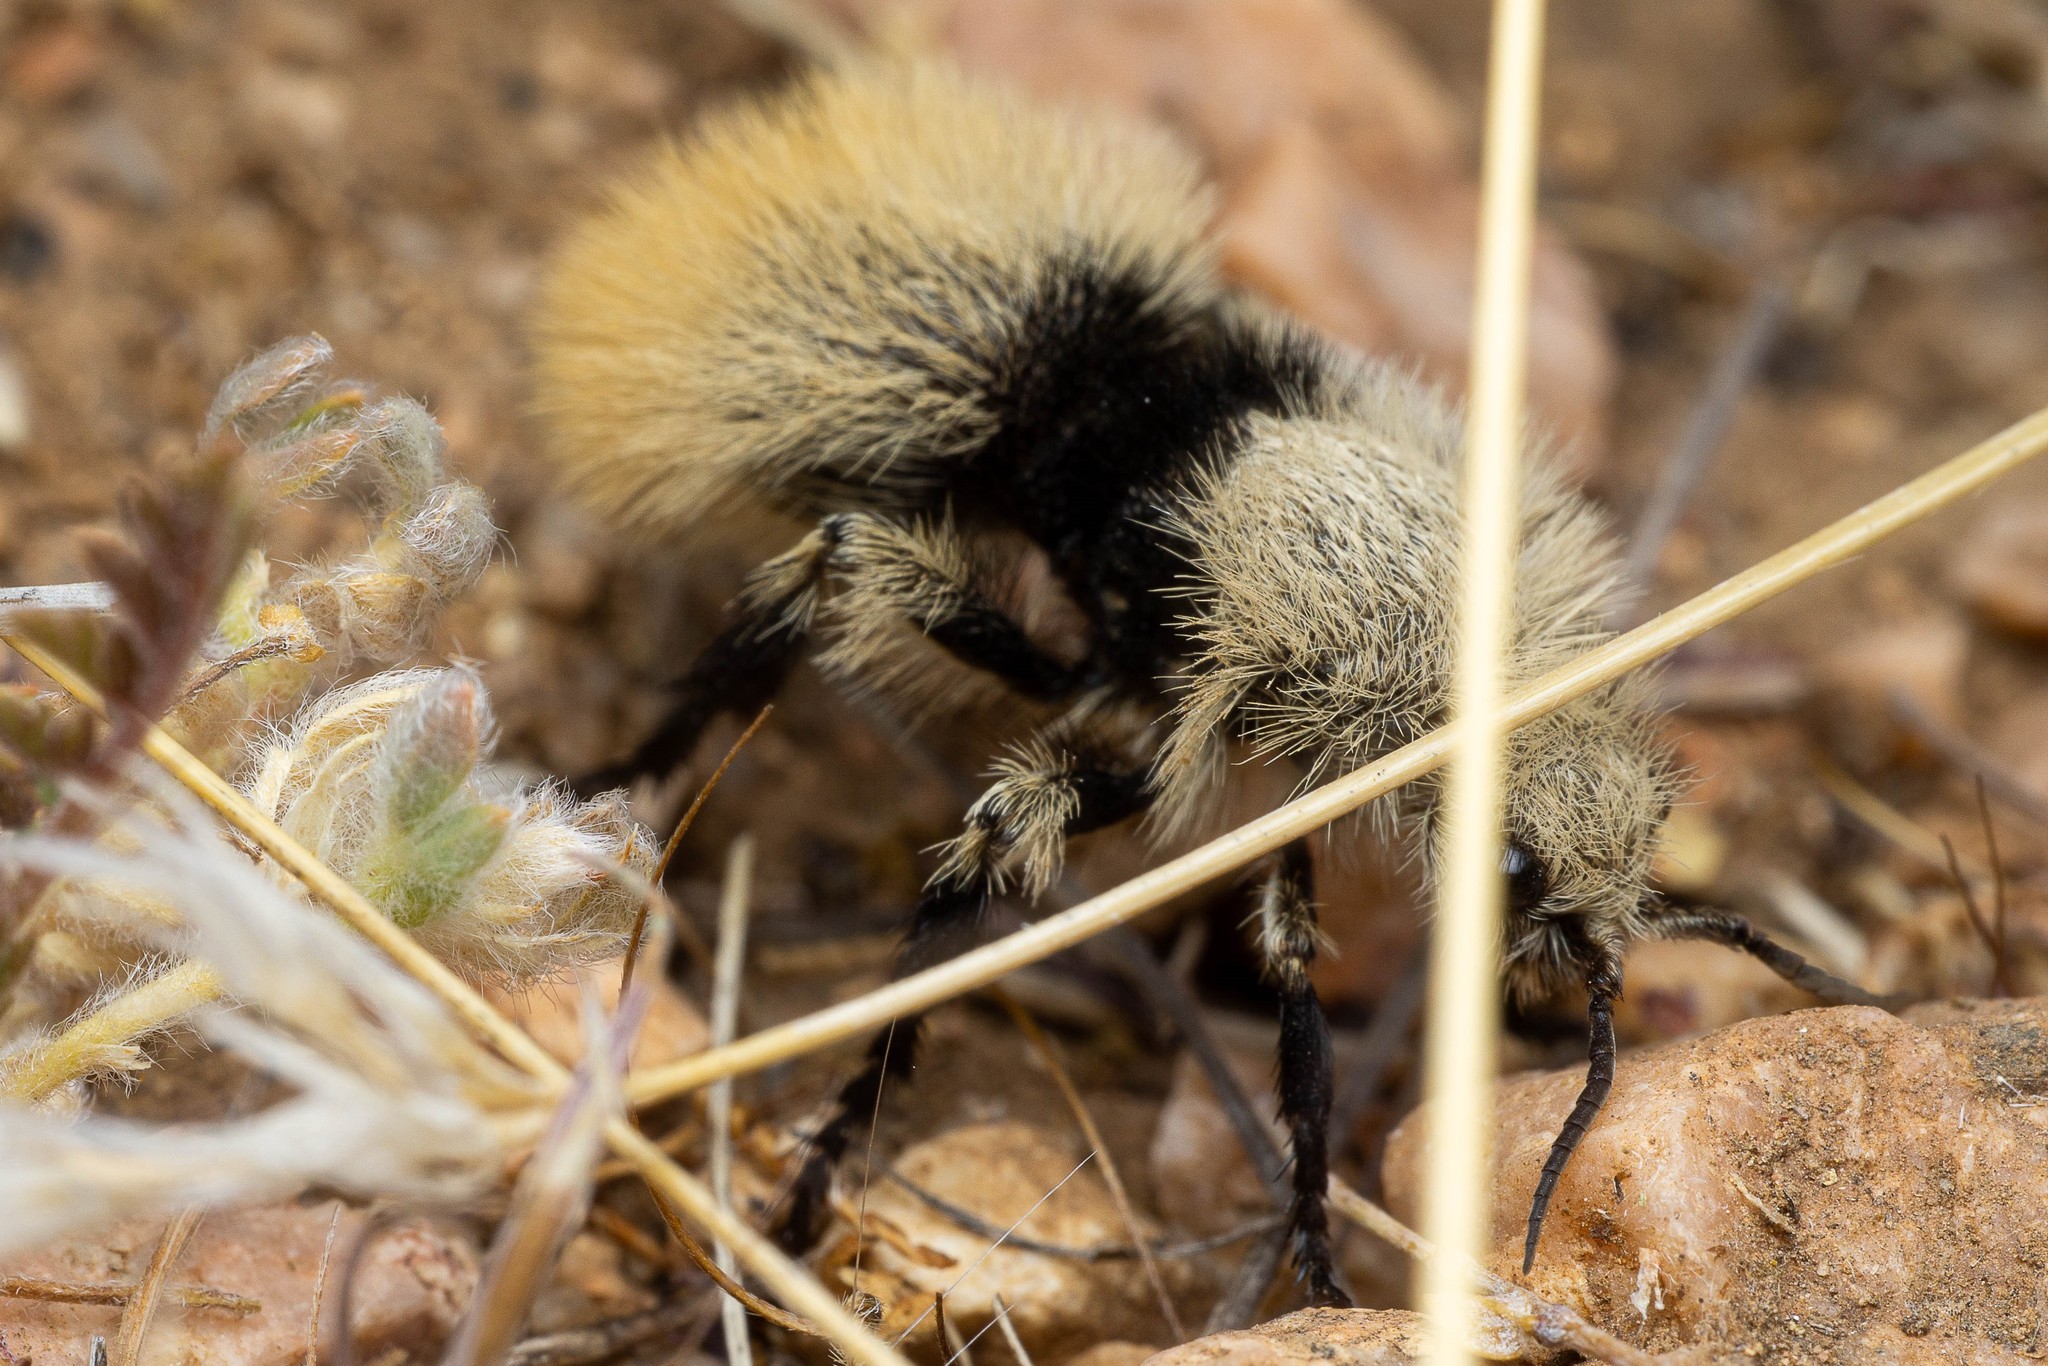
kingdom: Animalia
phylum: Arthropoda
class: Insecta
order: Hymenoptera
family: Mutillidae
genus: Dasymutilla
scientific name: Dasymutilla
